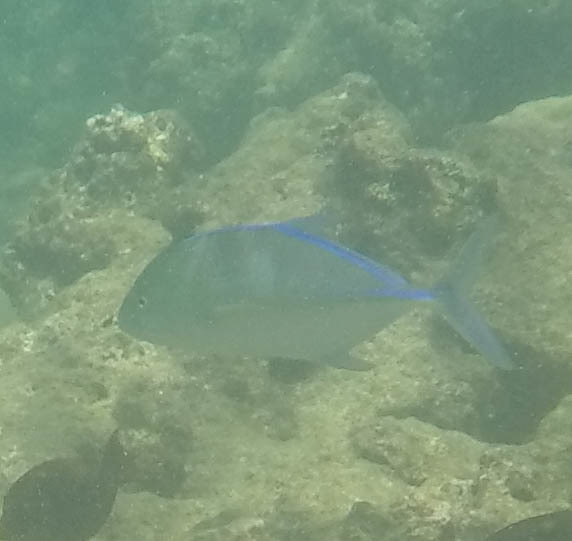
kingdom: Animalia
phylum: Chordata
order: Perciformes
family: Carangidae
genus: Caranx
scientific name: Caranx melampygus
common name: Bluefin trevally
